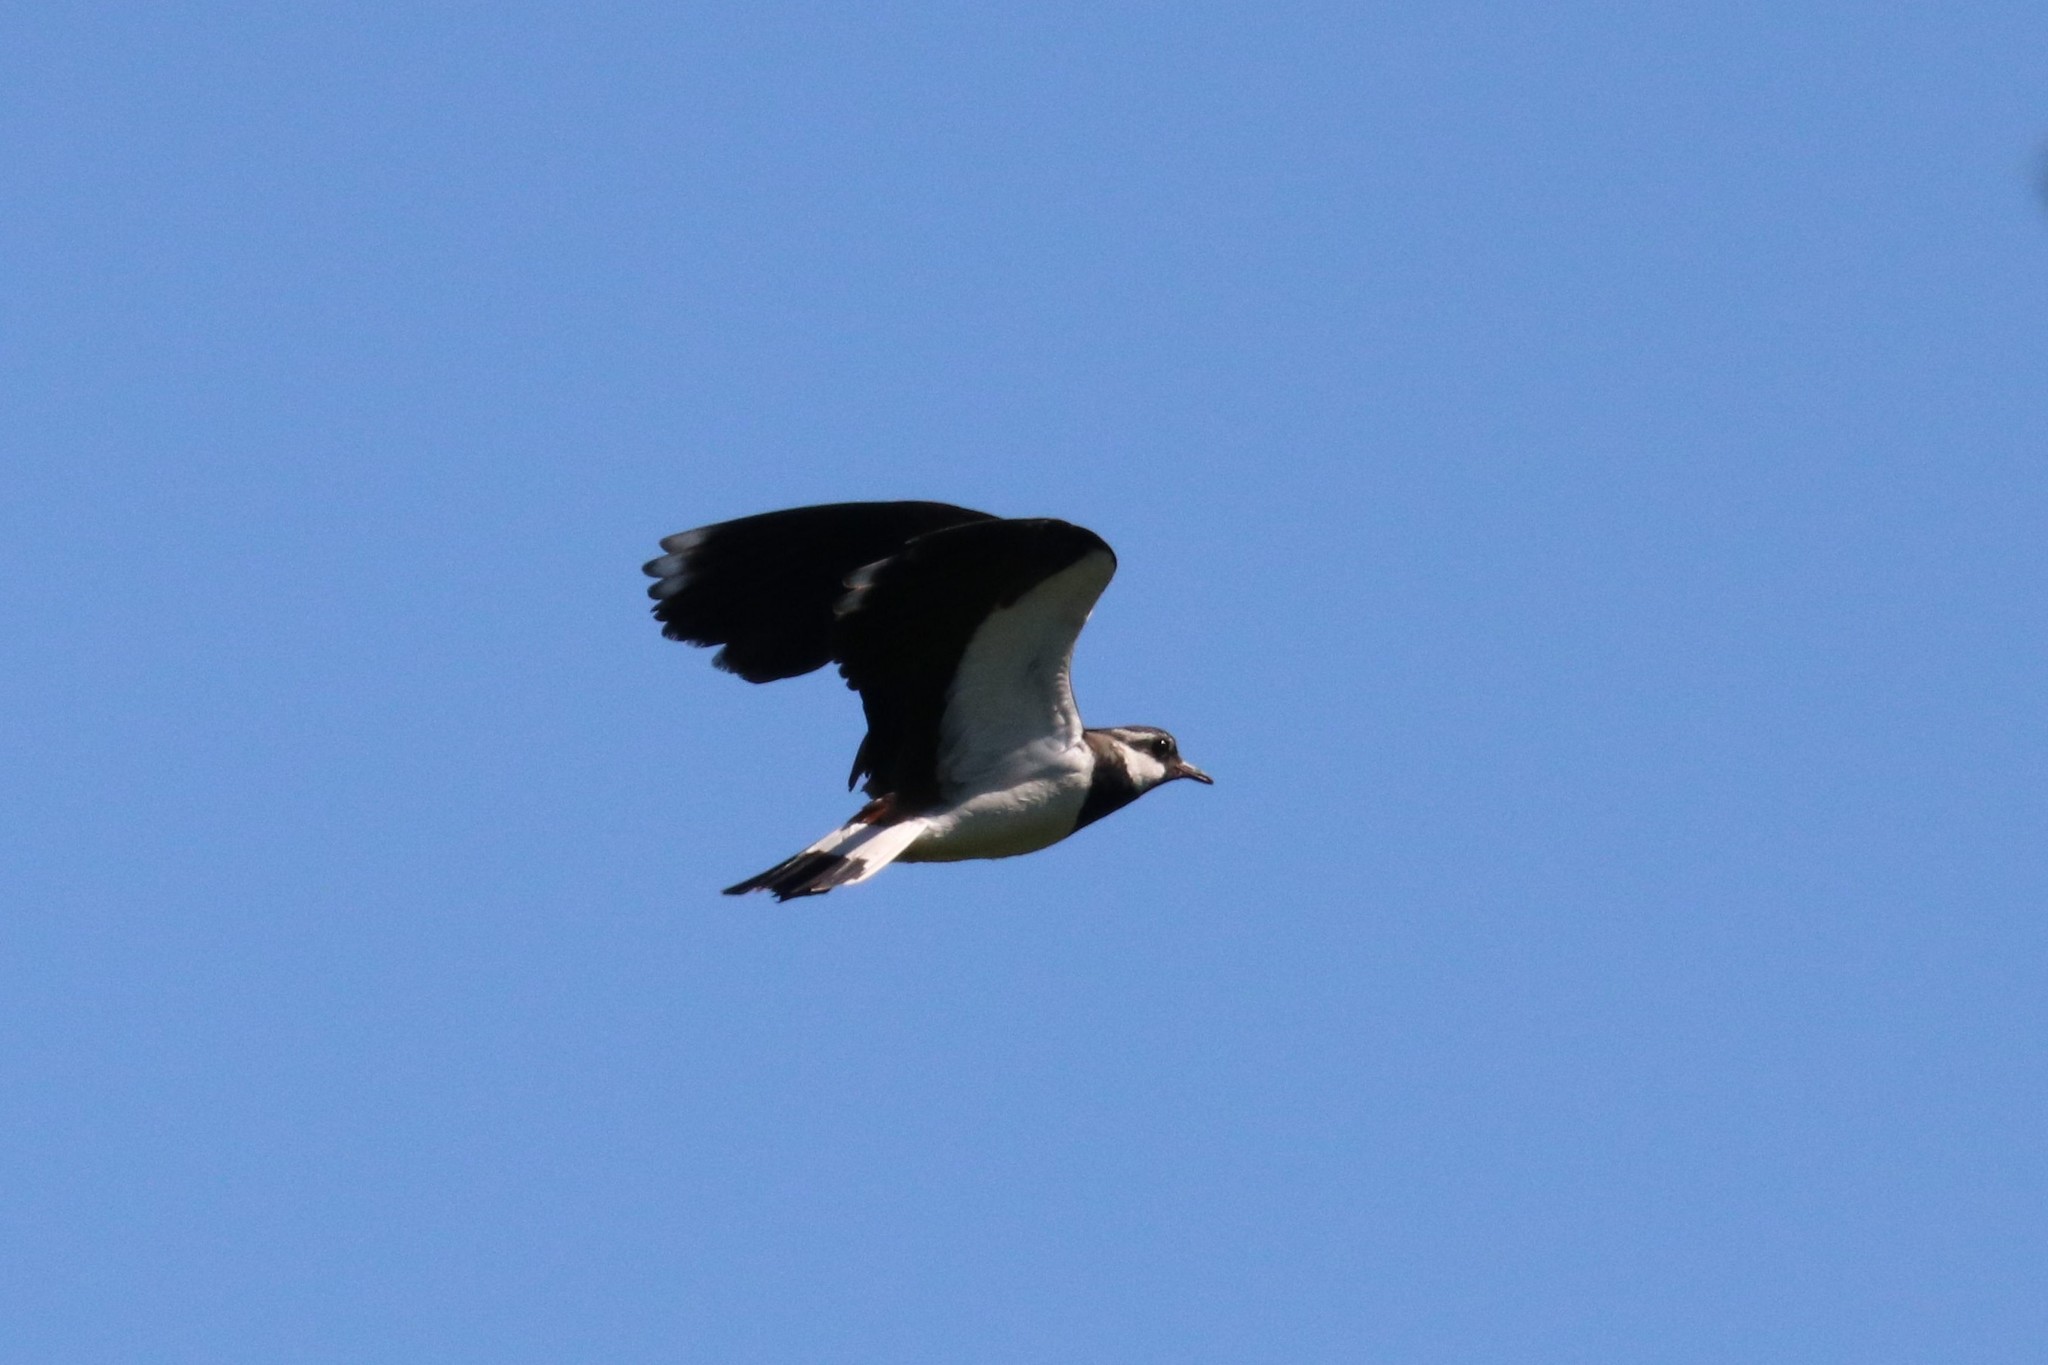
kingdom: Animalia
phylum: Chordata
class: Aves
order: Charadriiformes
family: Charadriidae
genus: Vanellus
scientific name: Vanellus vanellus
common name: Northern lapwing
